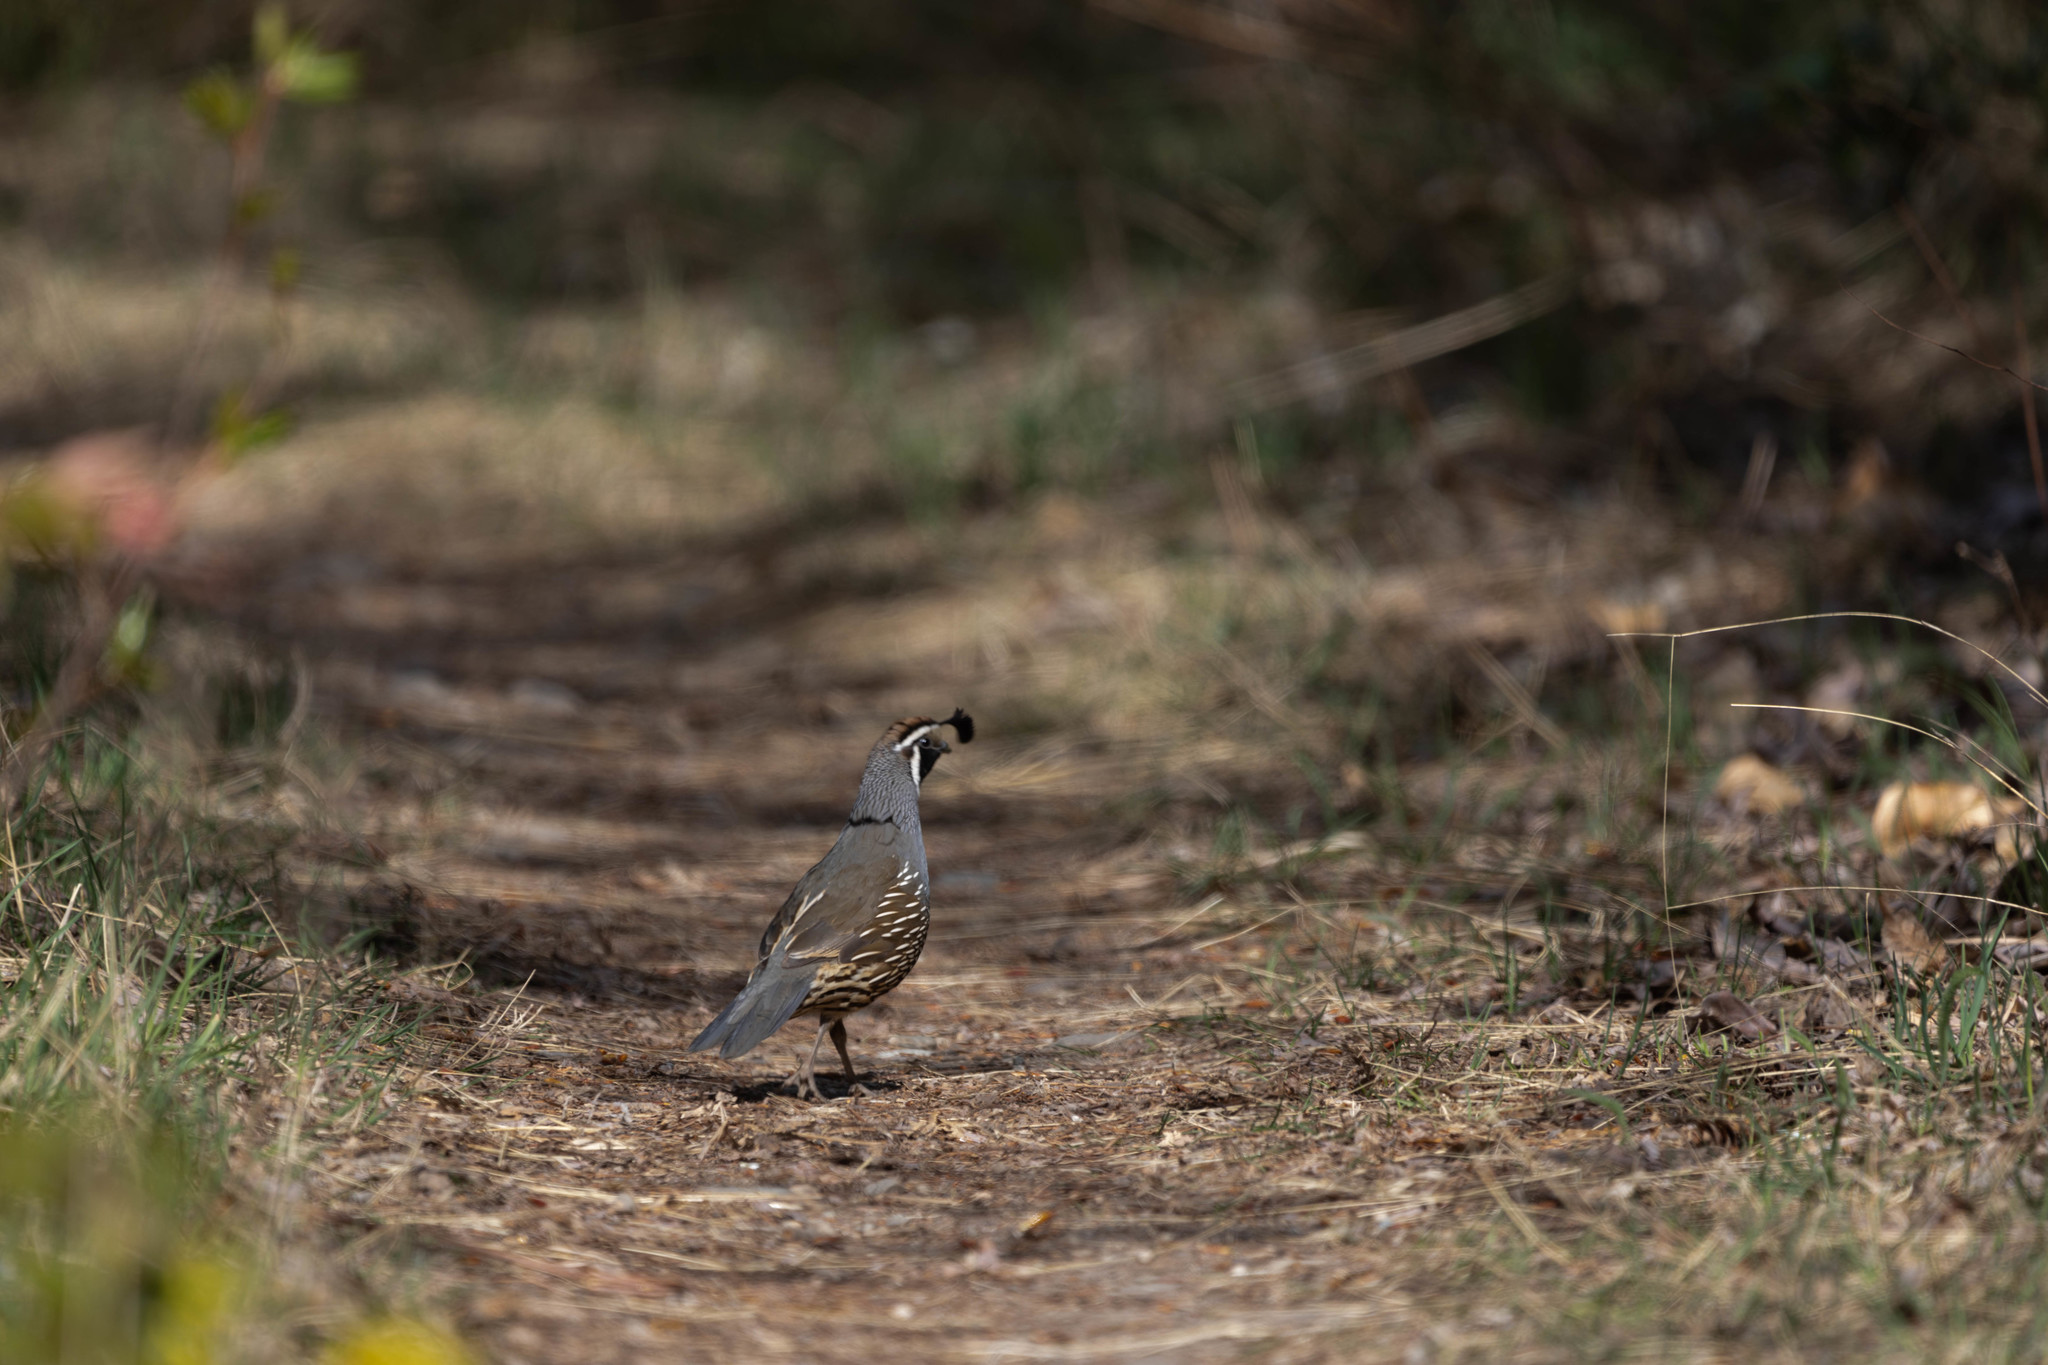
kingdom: Animalia
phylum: Chordata
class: Aves
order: Galliformes
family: Odontophoridae
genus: Callipepla
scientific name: Callipepla californica
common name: California quail
